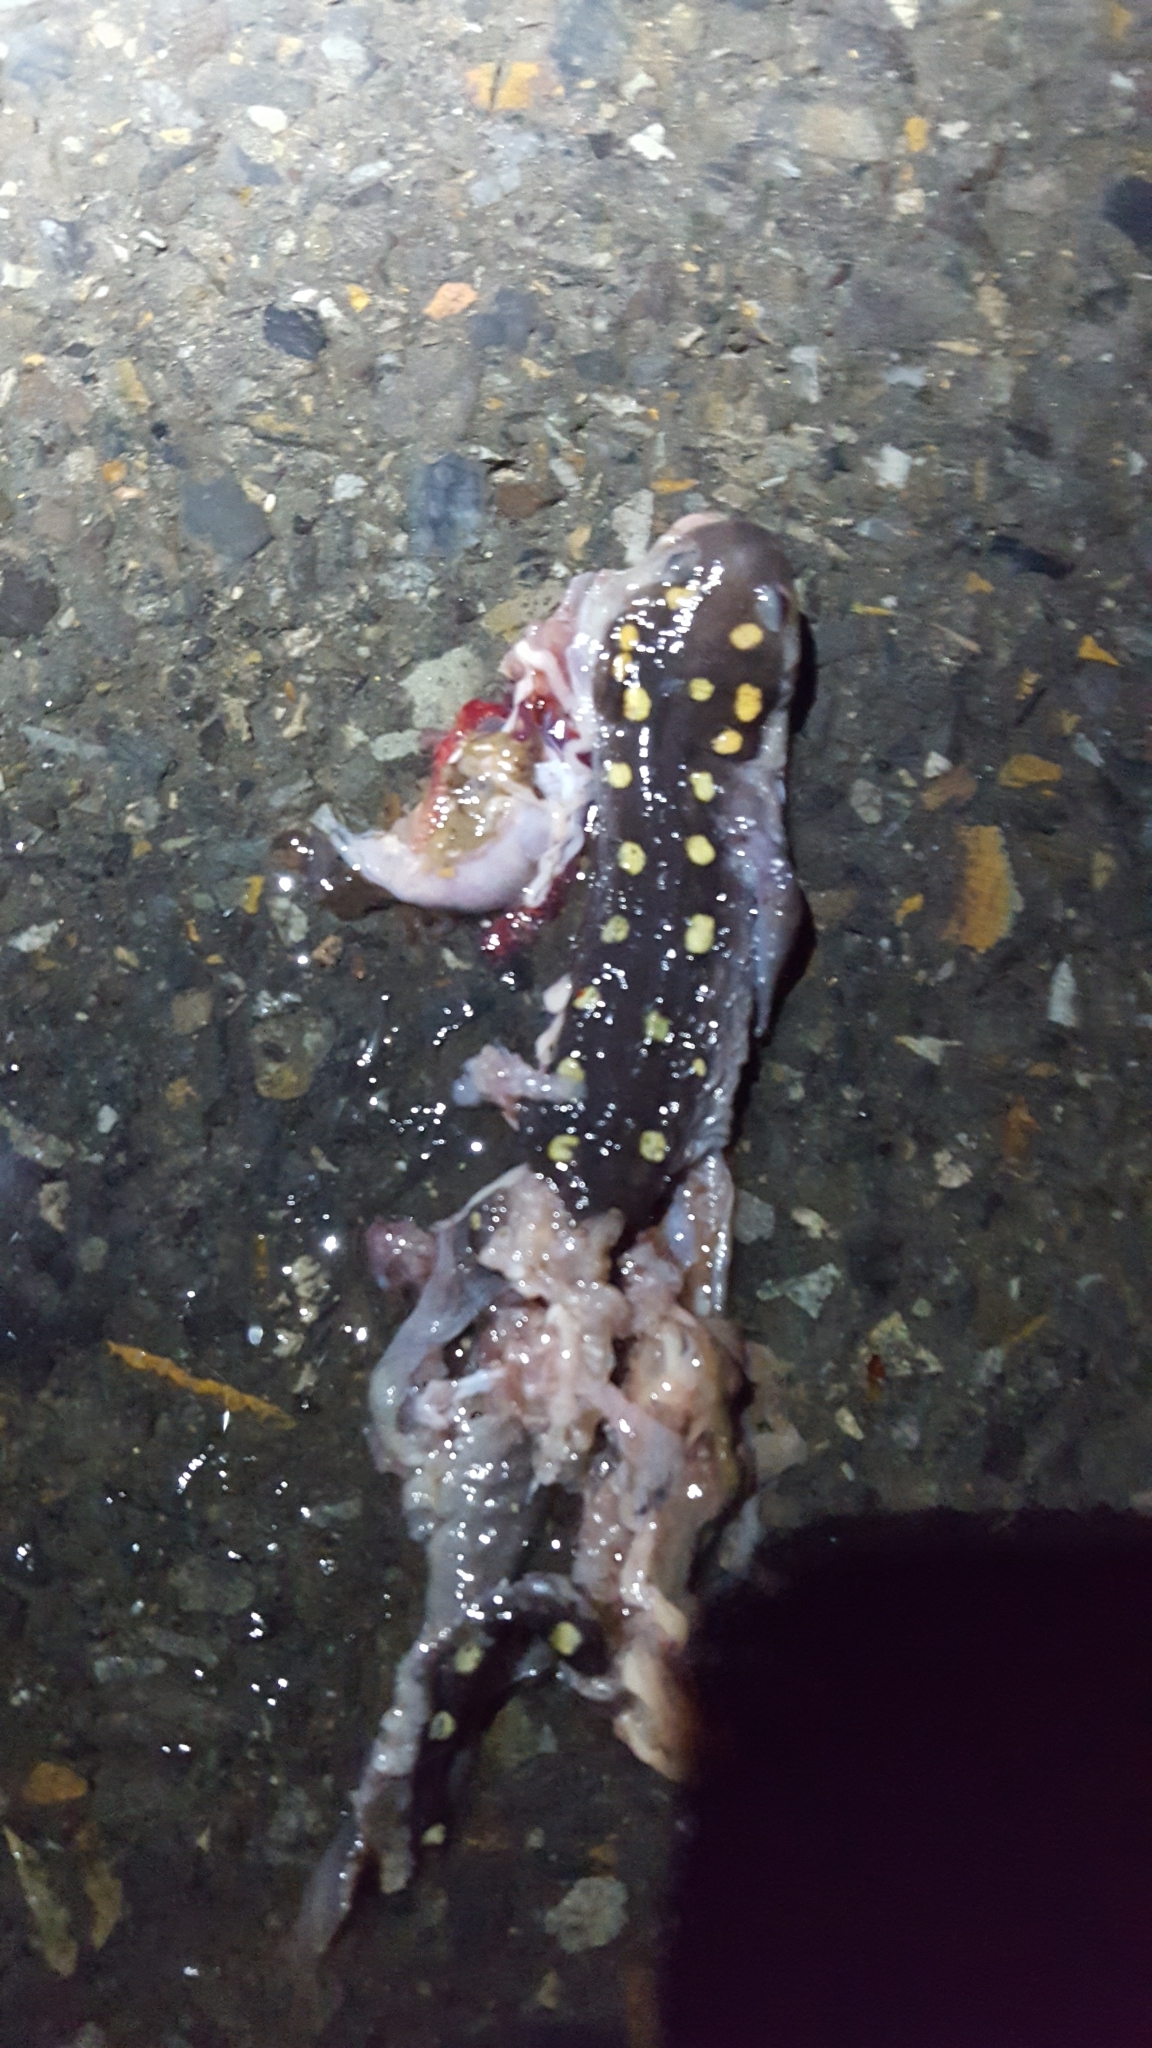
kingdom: Animalia
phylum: Chordata
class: Amphibia
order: Caudata
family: Ambystomatidae
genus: Ambystoma
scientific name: Ambystoma maculatum
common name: Spotted salamander
